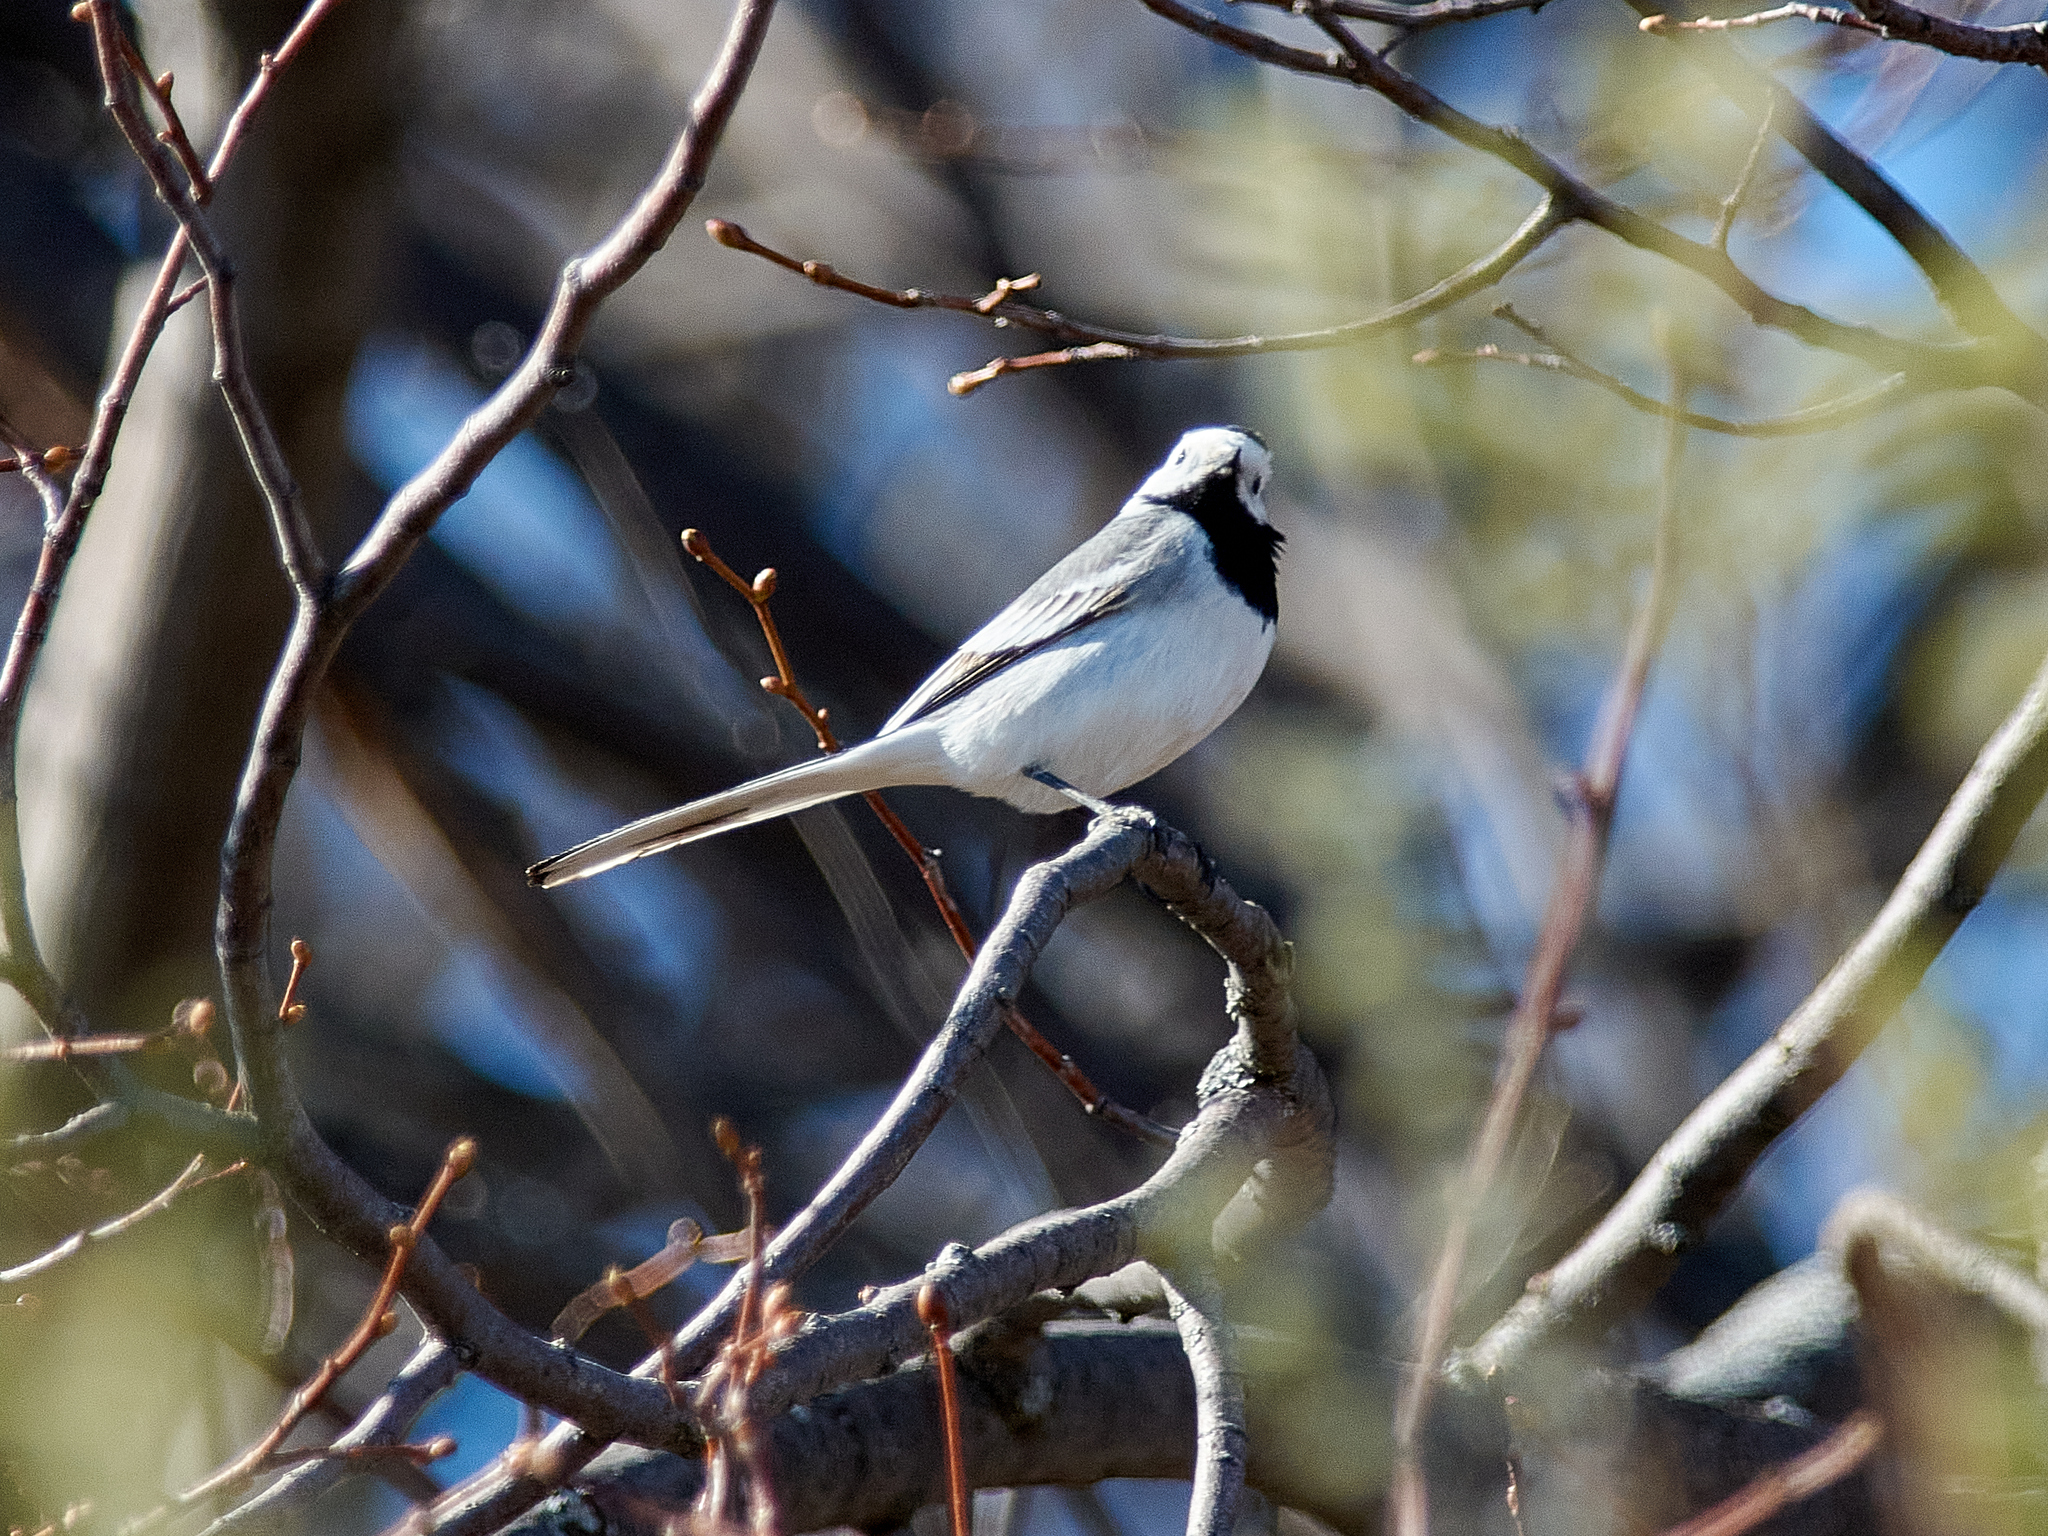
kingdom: Animalia
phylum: Chordata
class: Aves
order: Passeriformes
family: Motacillidae
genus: Motacilla
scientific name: Motacilla alba
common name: White wagtail
